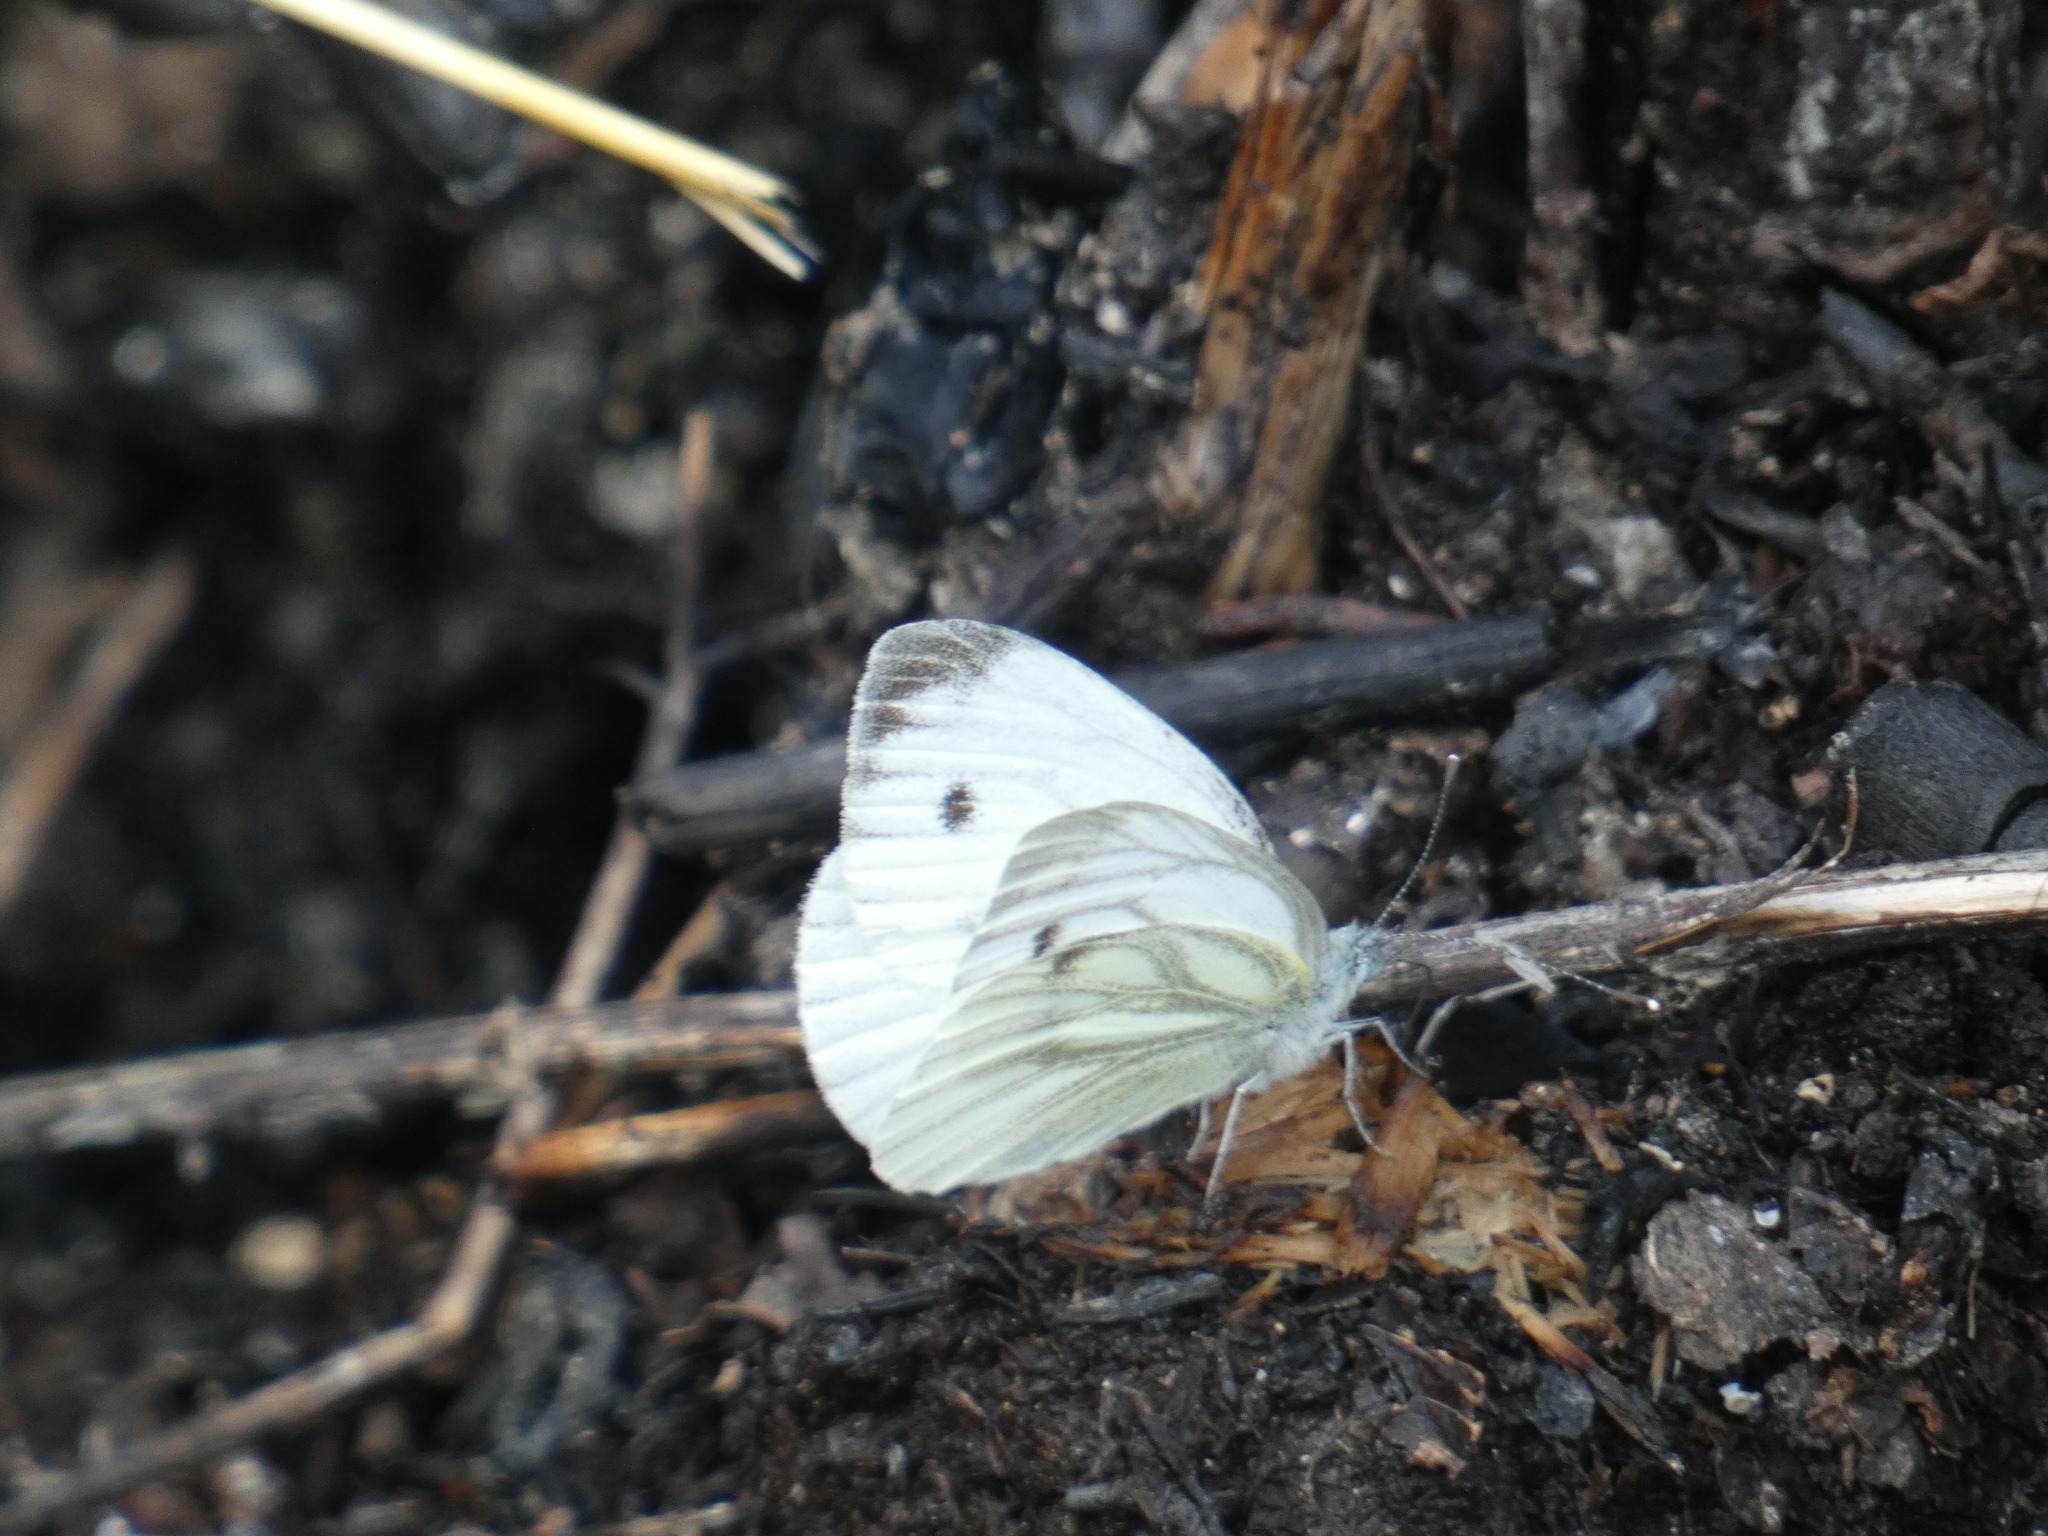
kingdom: Animalia
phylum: Arthropoda
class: Insecta
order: Lepidoptera
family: Pieridae
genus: Pieris
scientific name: Pieris napi
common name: Green-veined white
